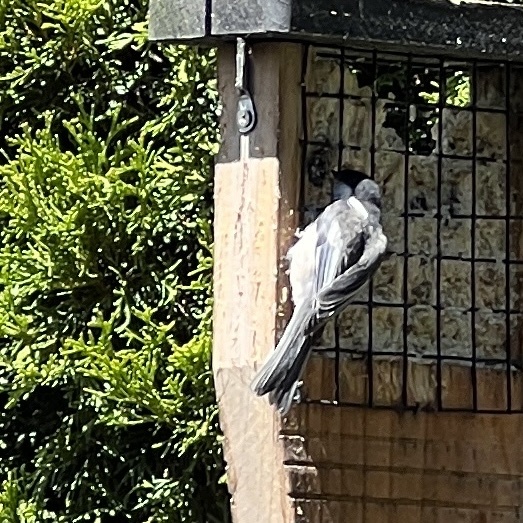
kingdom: Animalia
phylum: Chordata
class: Aves
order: Passeriformes
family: Paridae
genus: Poecile
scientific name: Poecile atricapillus
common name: Black-capped chickadee
